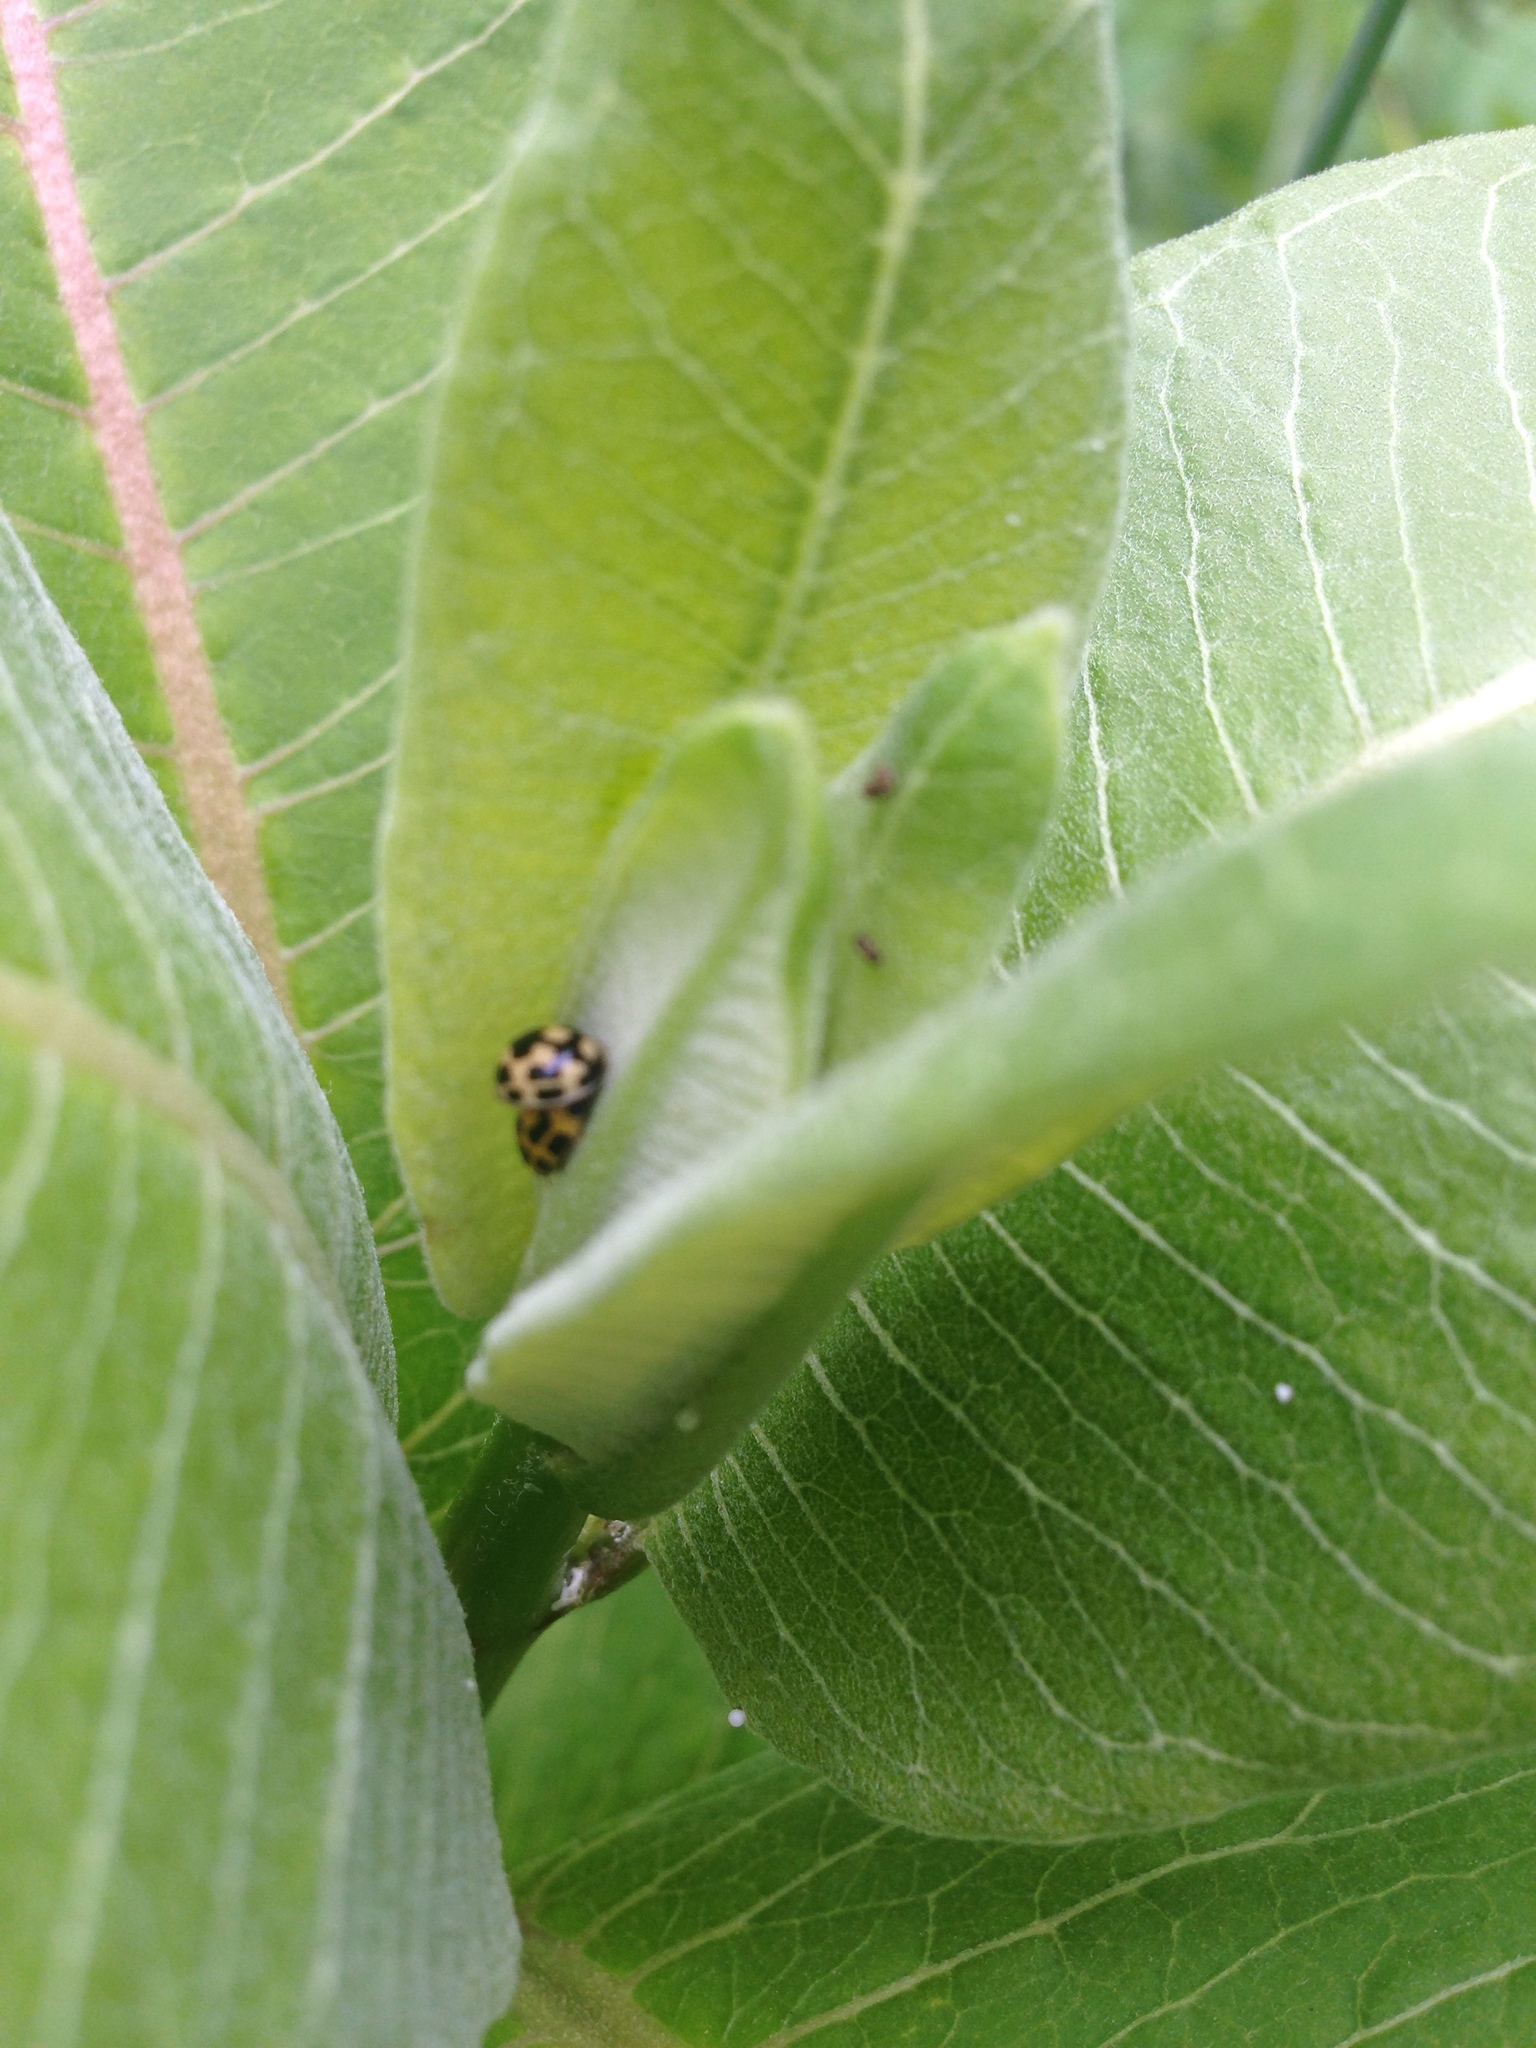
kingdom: Animalia
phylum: Arthropoda
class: Insecta
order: Coleoptera
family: Coccinellidae
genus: Propylaea
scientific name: Propylaea quatuordecimpunctata
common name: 14-spotted ladybird beetle
